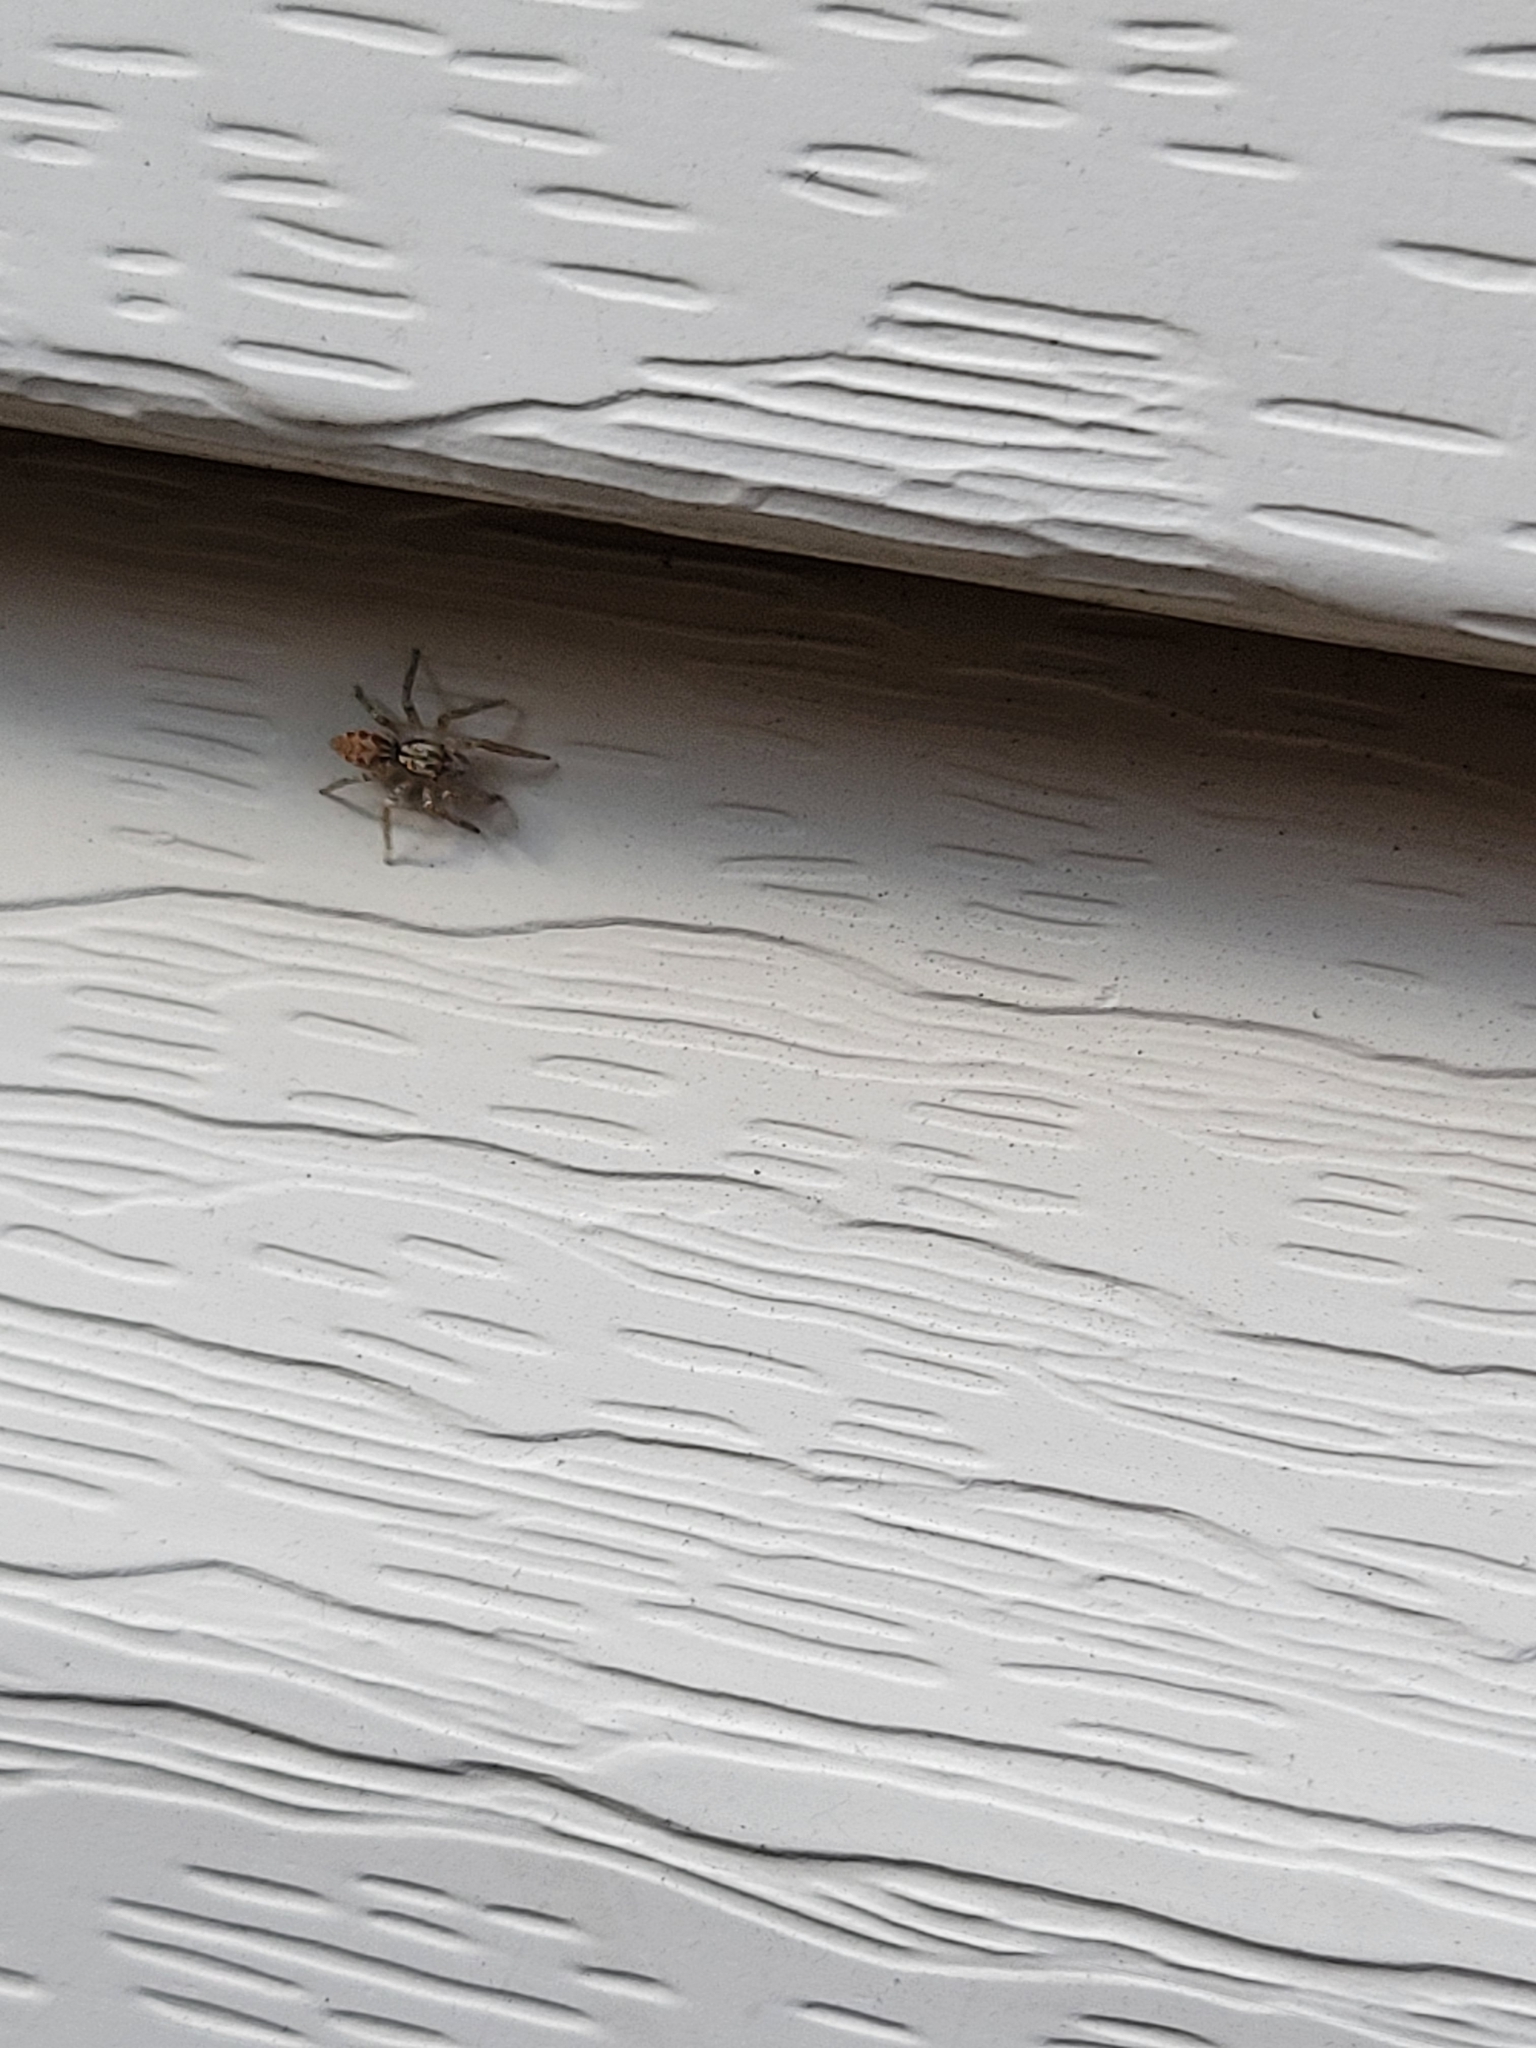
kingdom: Animalia
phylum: Arthropoda
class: Arachnida
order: Araneae
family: Salticidae
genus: Maevia
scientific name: Maevia inclemens
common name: Dimorphic jumper
